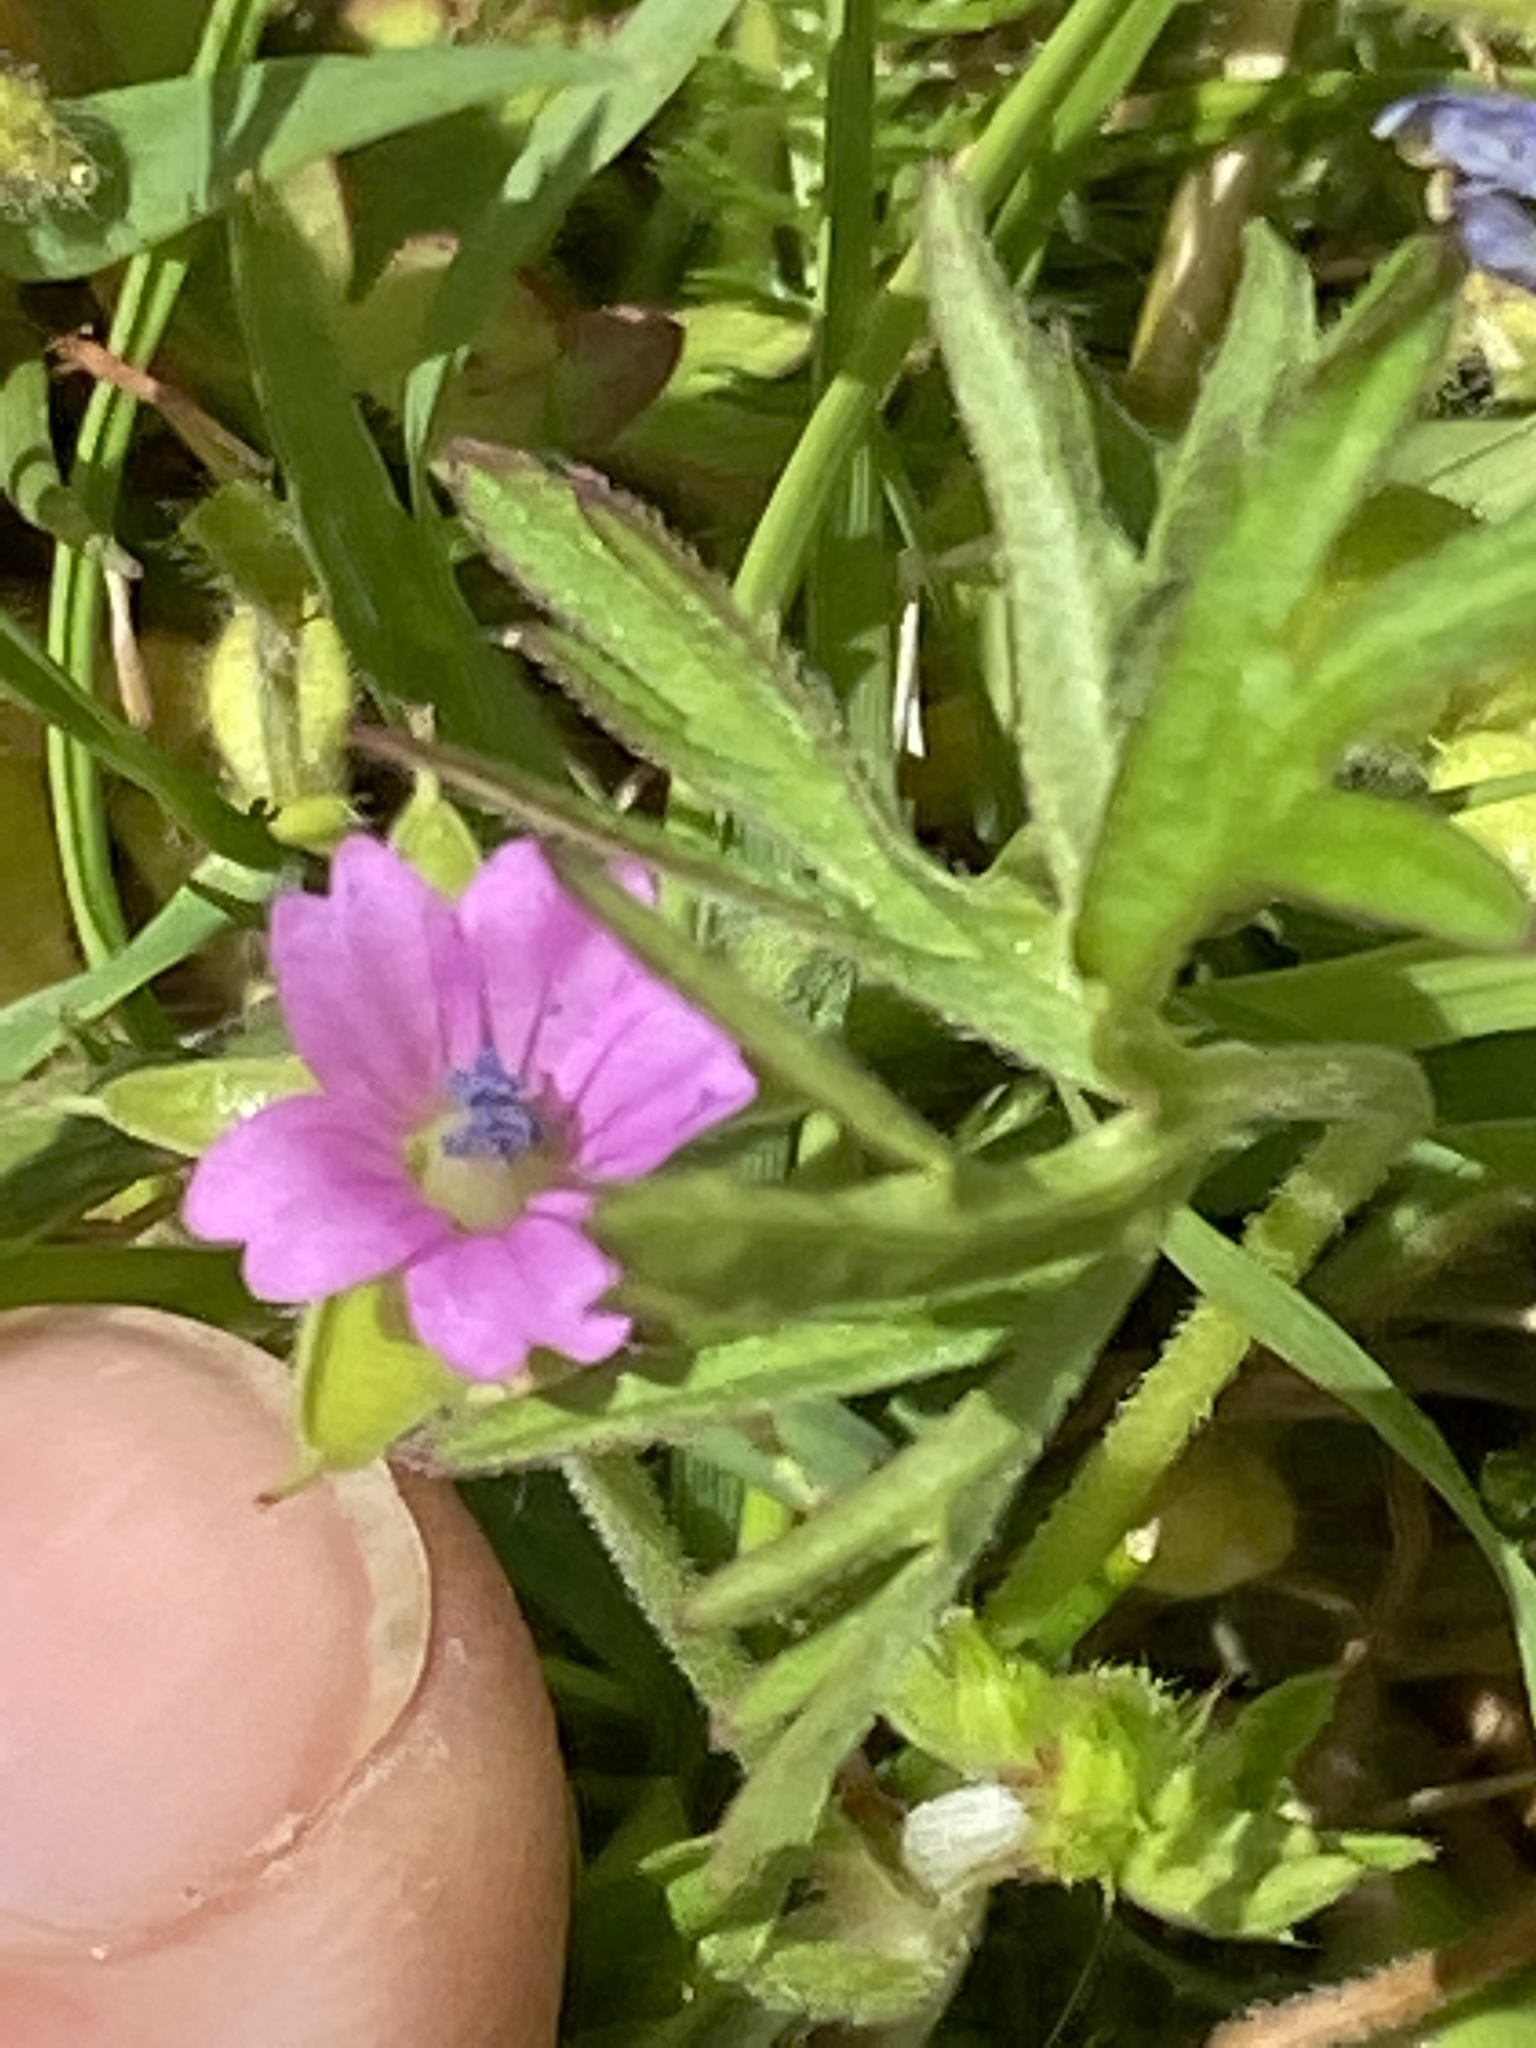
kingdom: Plantae
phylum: Tracheophyta
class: Magnoliopsida
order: Geraniales
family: Geraniaceae
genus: Geranium
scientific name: Geranium dissectum
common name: Cut-leaved crane's-bill
